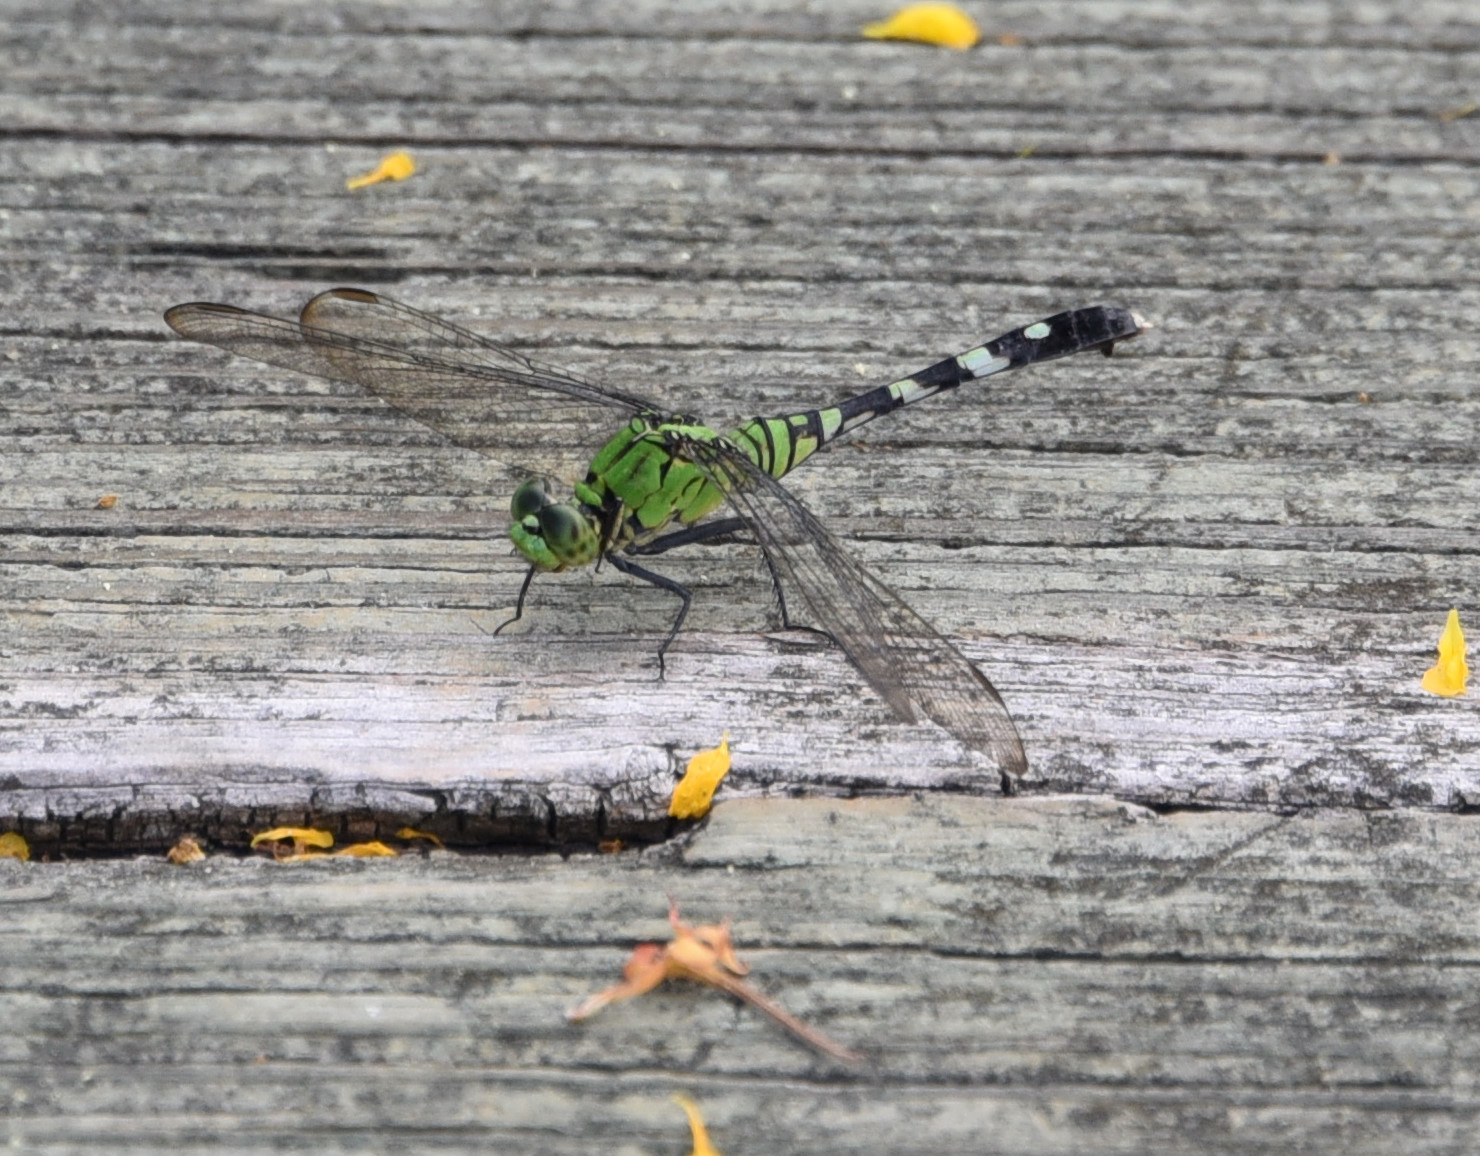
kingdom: Animalia
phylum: Arthropoda
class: Insecta
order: Odonata
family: Libellulidae
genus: Erythemis
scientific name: Erythemis simplicicollis
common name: Eastern pondhawk
